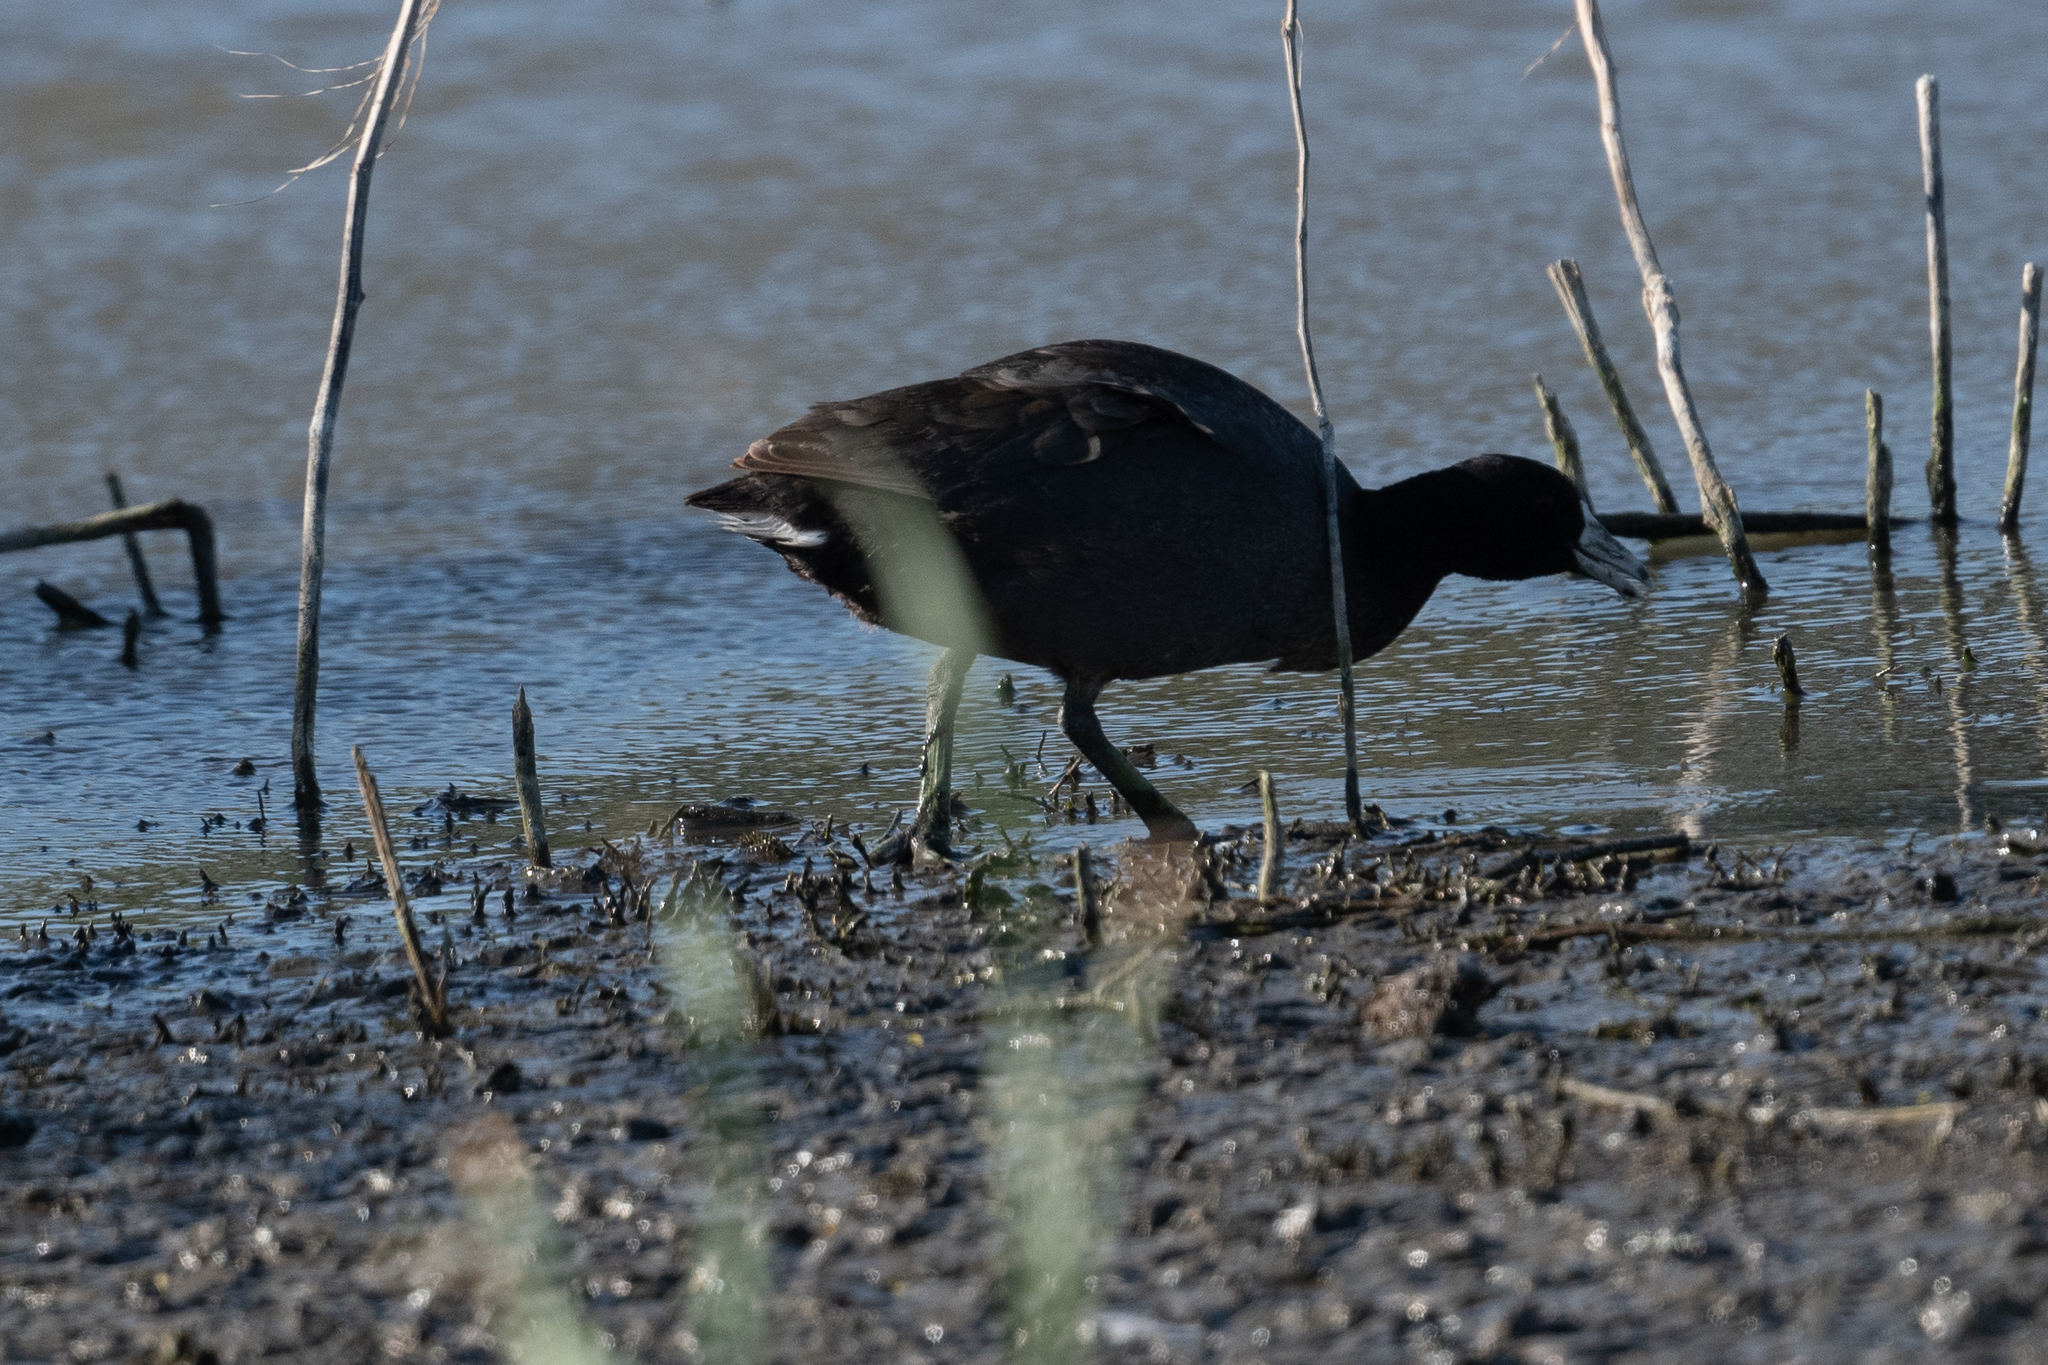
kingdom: Animalia
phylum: Chordata
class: Aves
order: Gruiformes
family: Rallidae
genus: Fulica
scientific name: Fulica americana
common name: American coot
